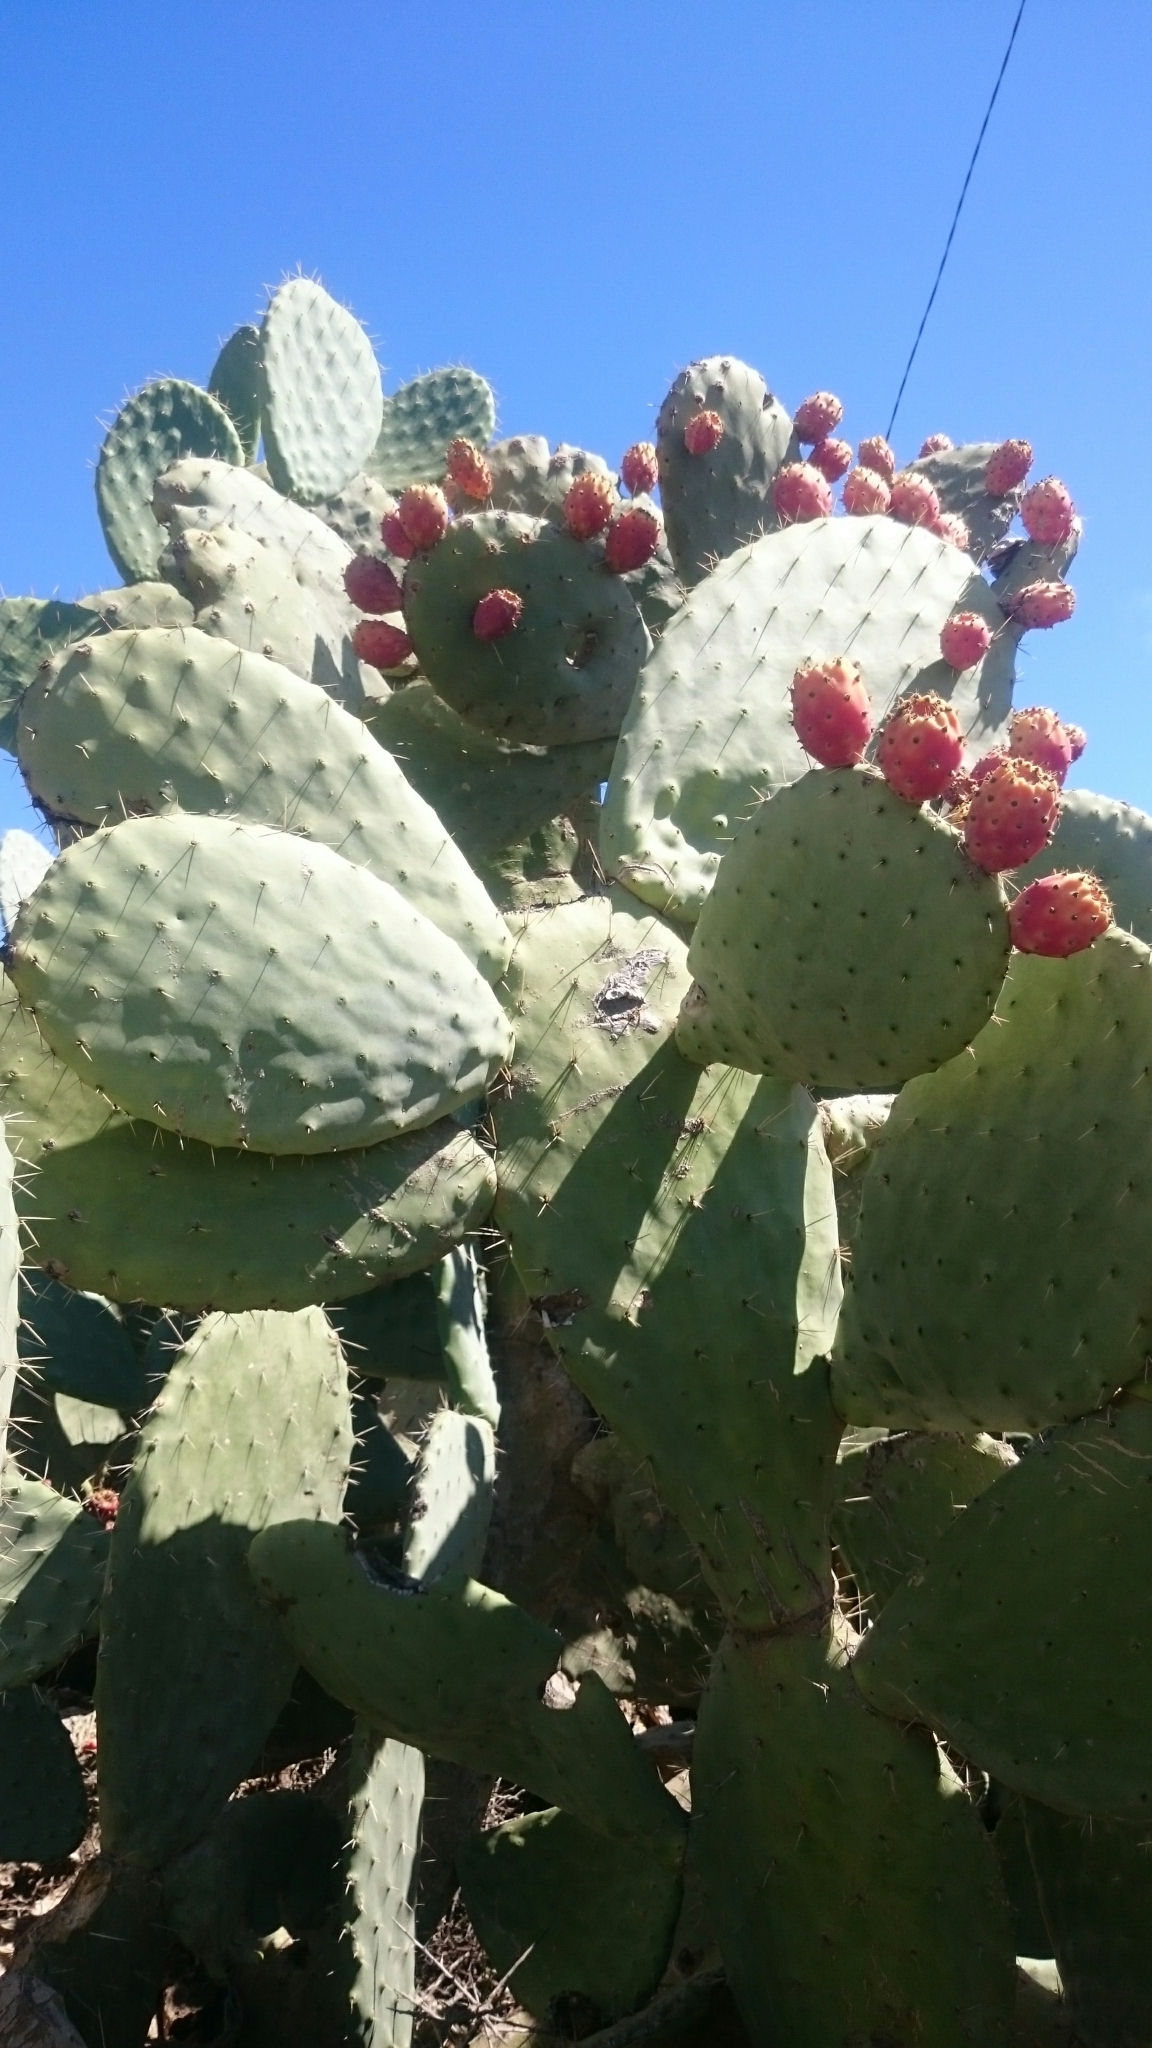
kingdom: Plantae
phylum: Tracheophyta
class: Magnoliopsida
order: Caryophyllales
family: Cactaceae
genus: Opuntia
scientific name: Opuntia ficus-indica
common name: Barbary fig
